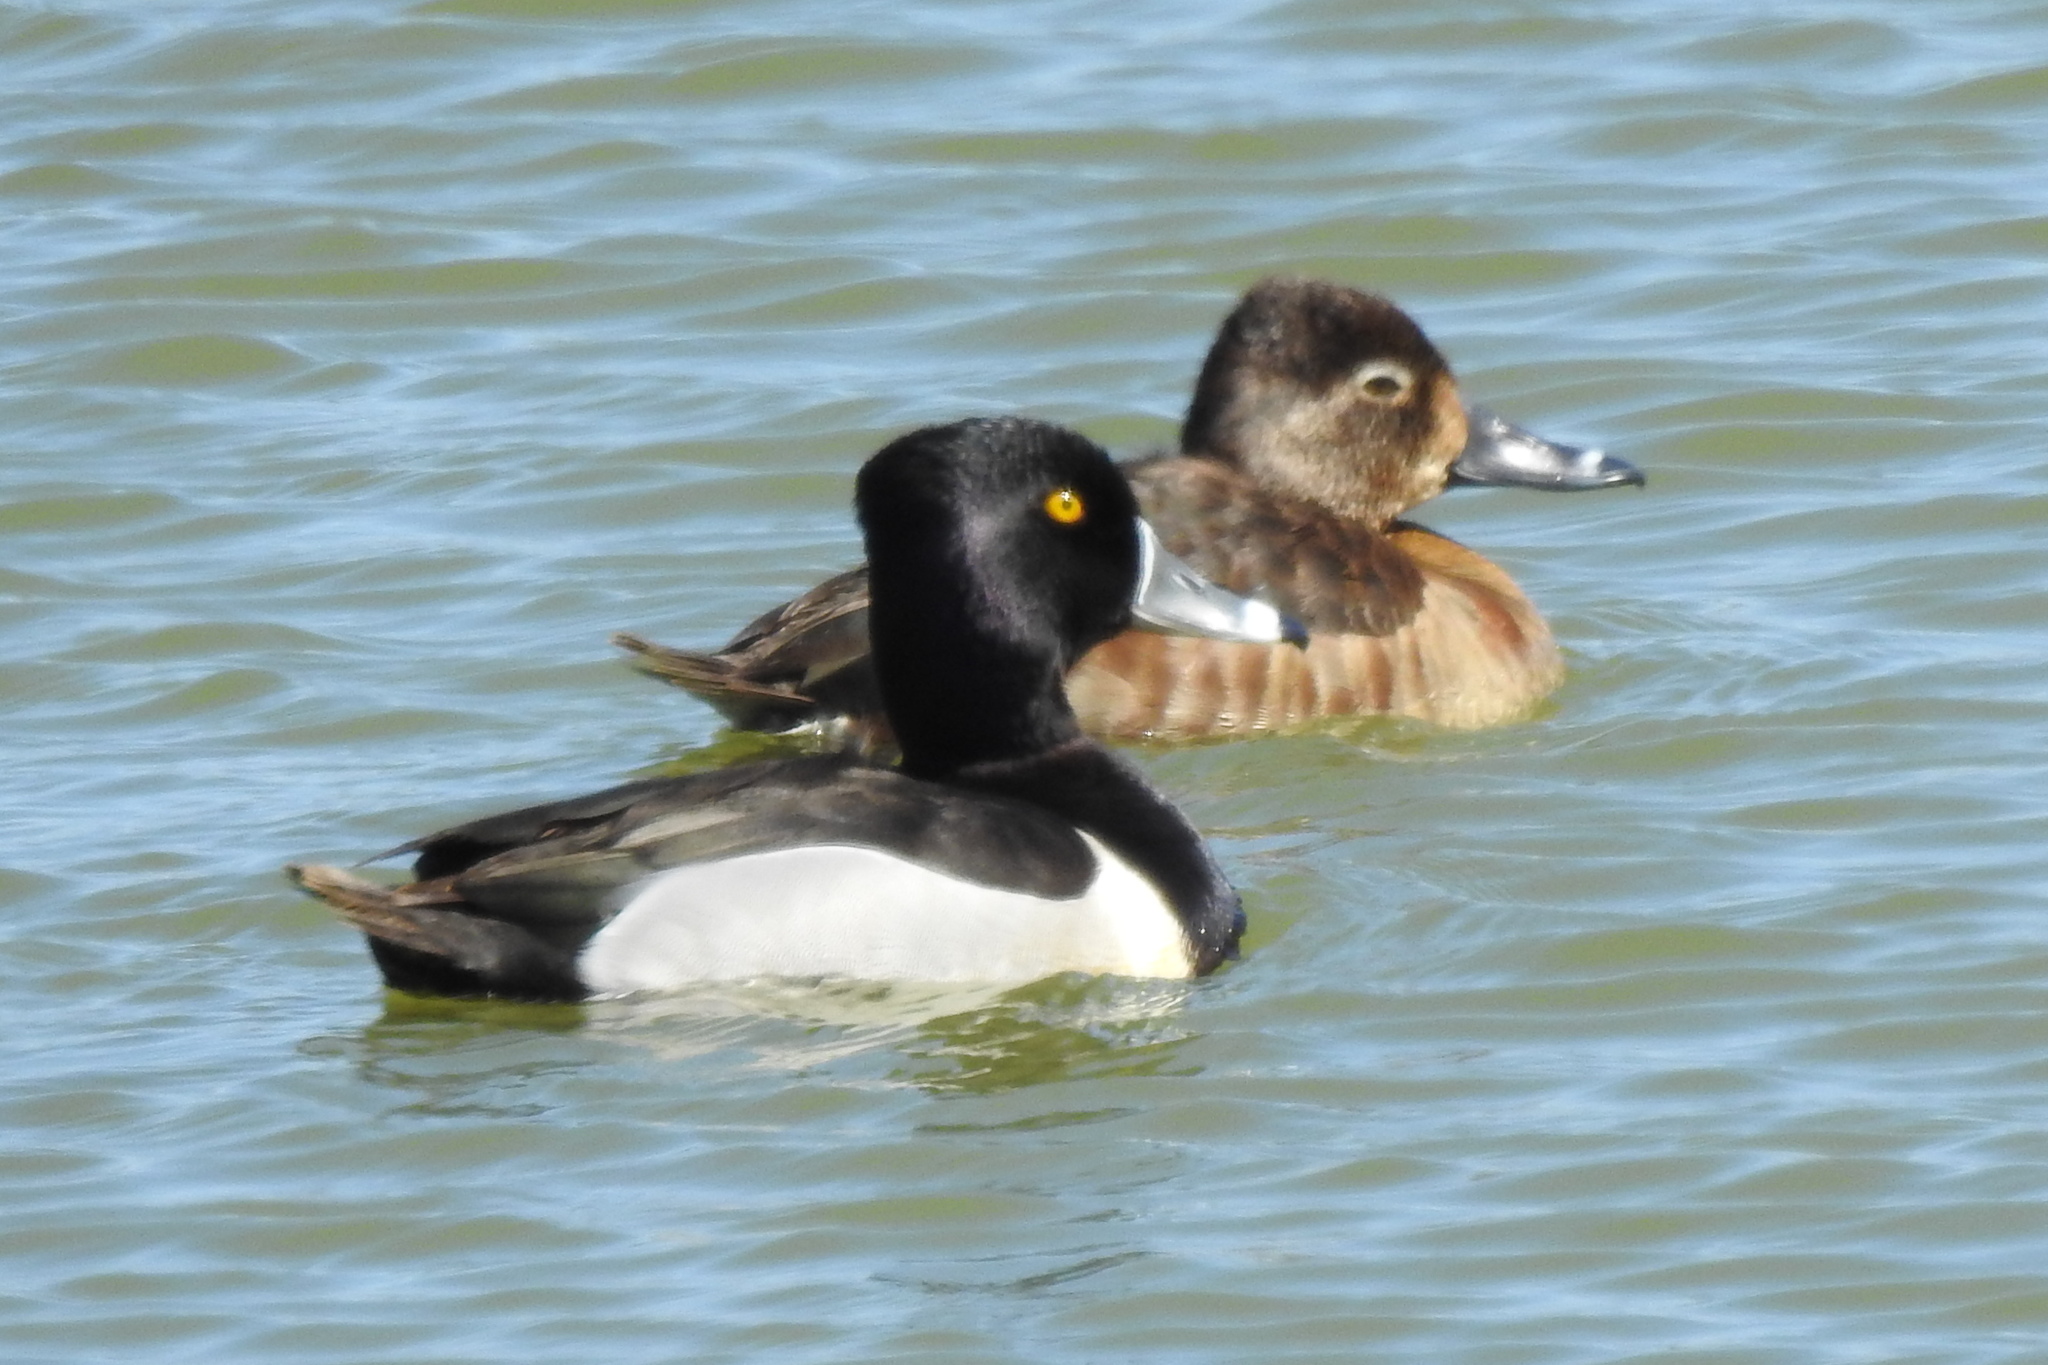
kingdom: Animalia
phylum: Chordata
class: Aves
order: Anseriformes
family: Anatidae
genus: Aythya
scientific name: Aythya collaris
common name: Ring-necked duck
